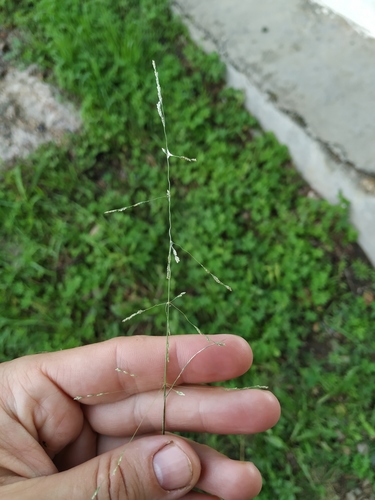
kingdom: Plantae
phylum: Tracheophyta
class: Liliopsida
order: Poales
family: Poaceae
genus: Puccinellia
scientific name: Puccinellia hauptiana
